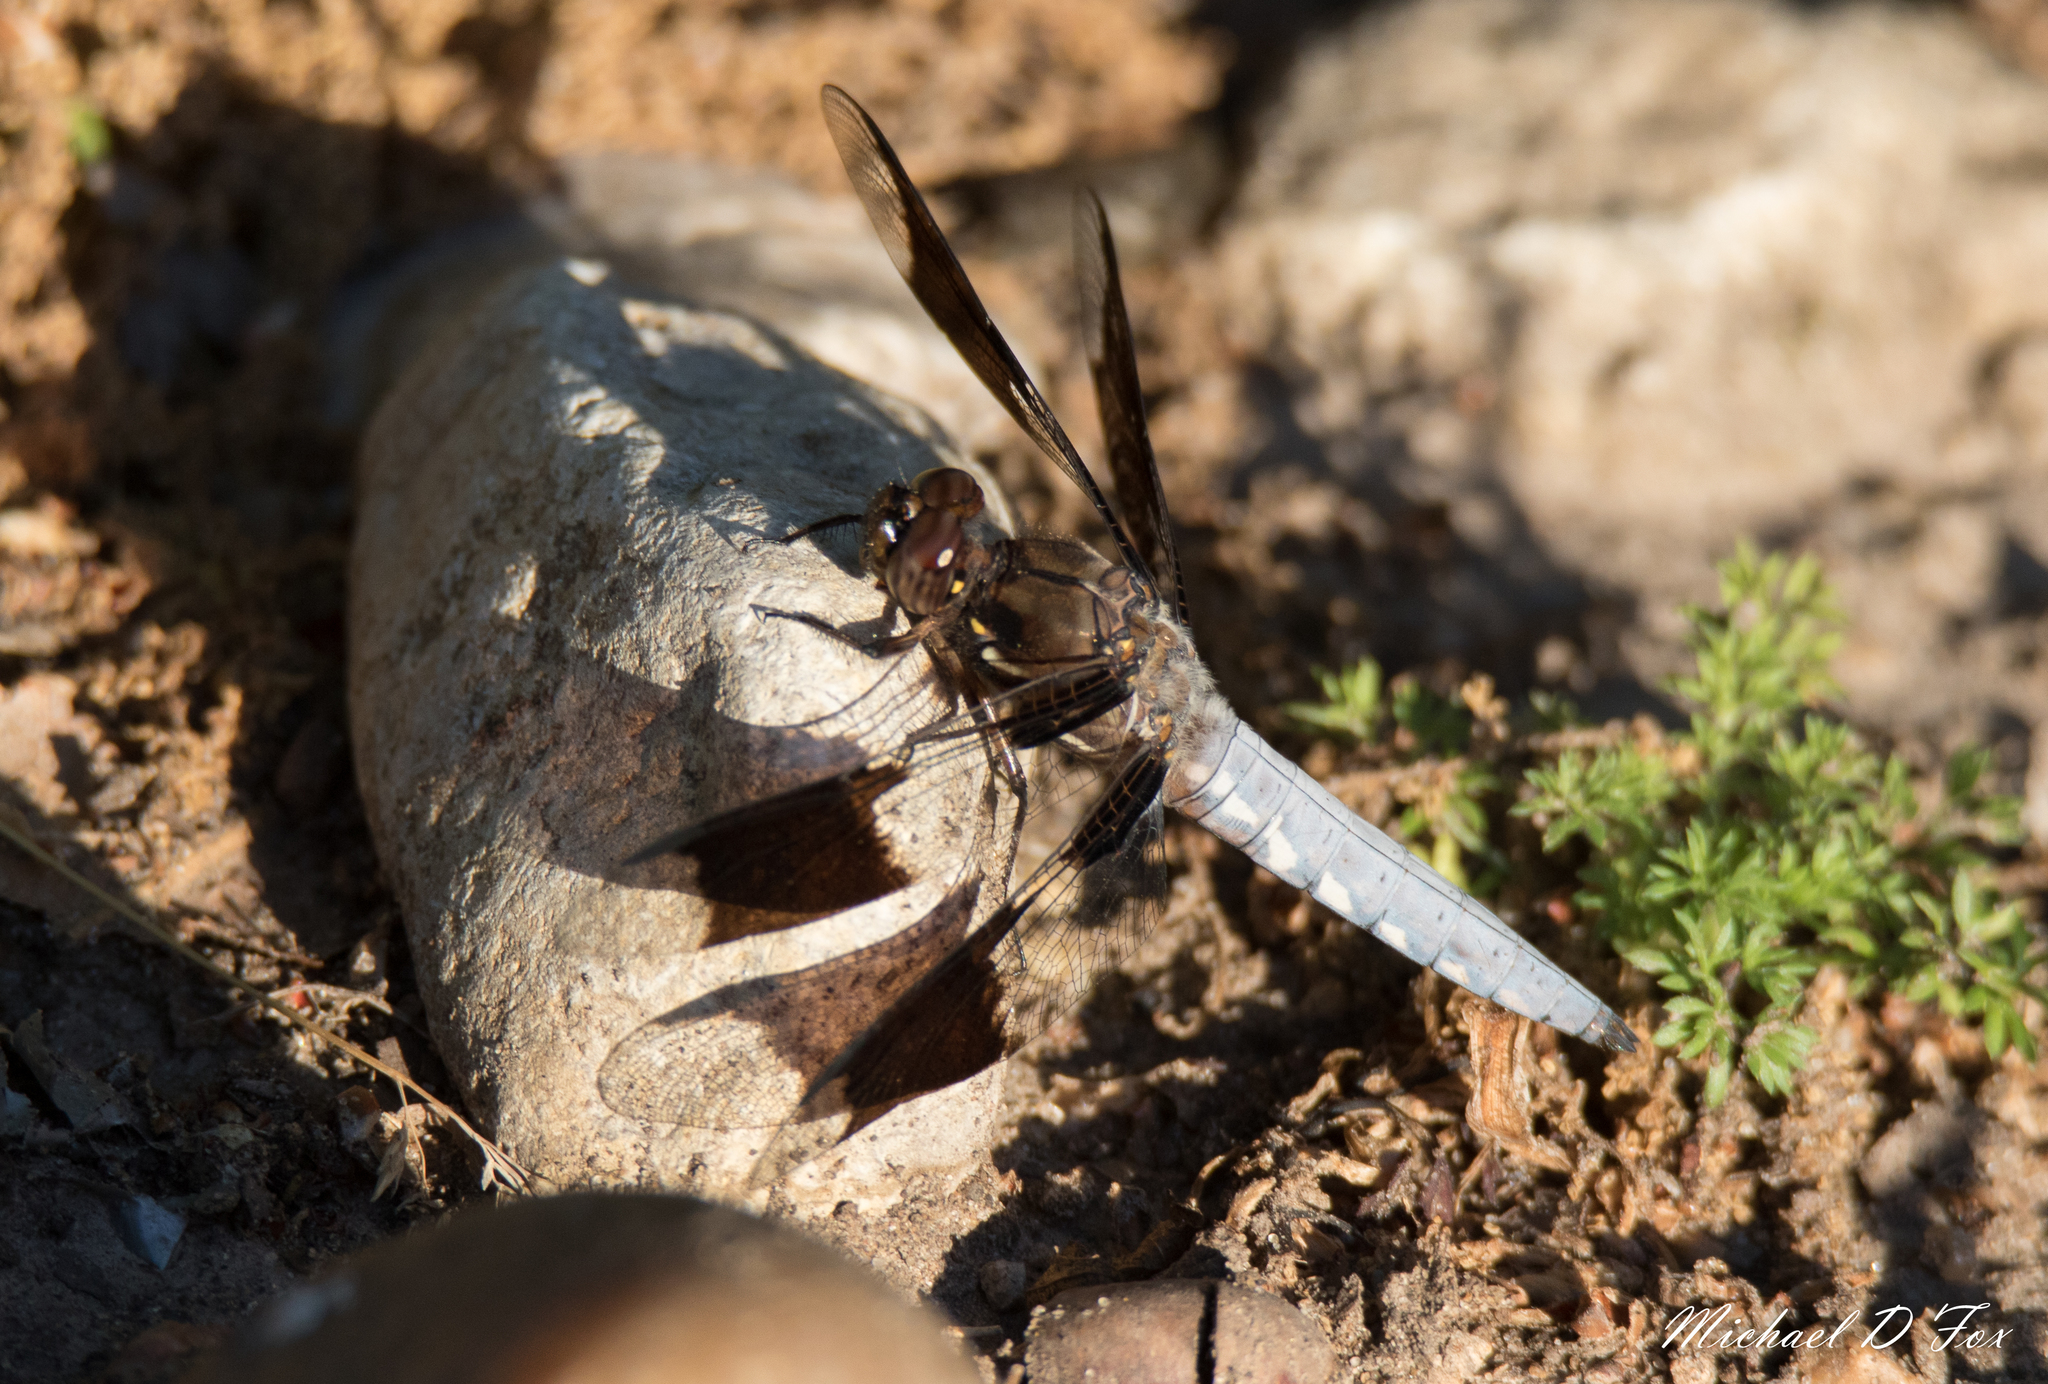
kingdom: Animalia
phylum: Arthropoda
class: Insecta
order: Odonata
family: Libellulidae
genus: Plathemis
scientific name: Plathemis lydia
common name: Common whitetail
